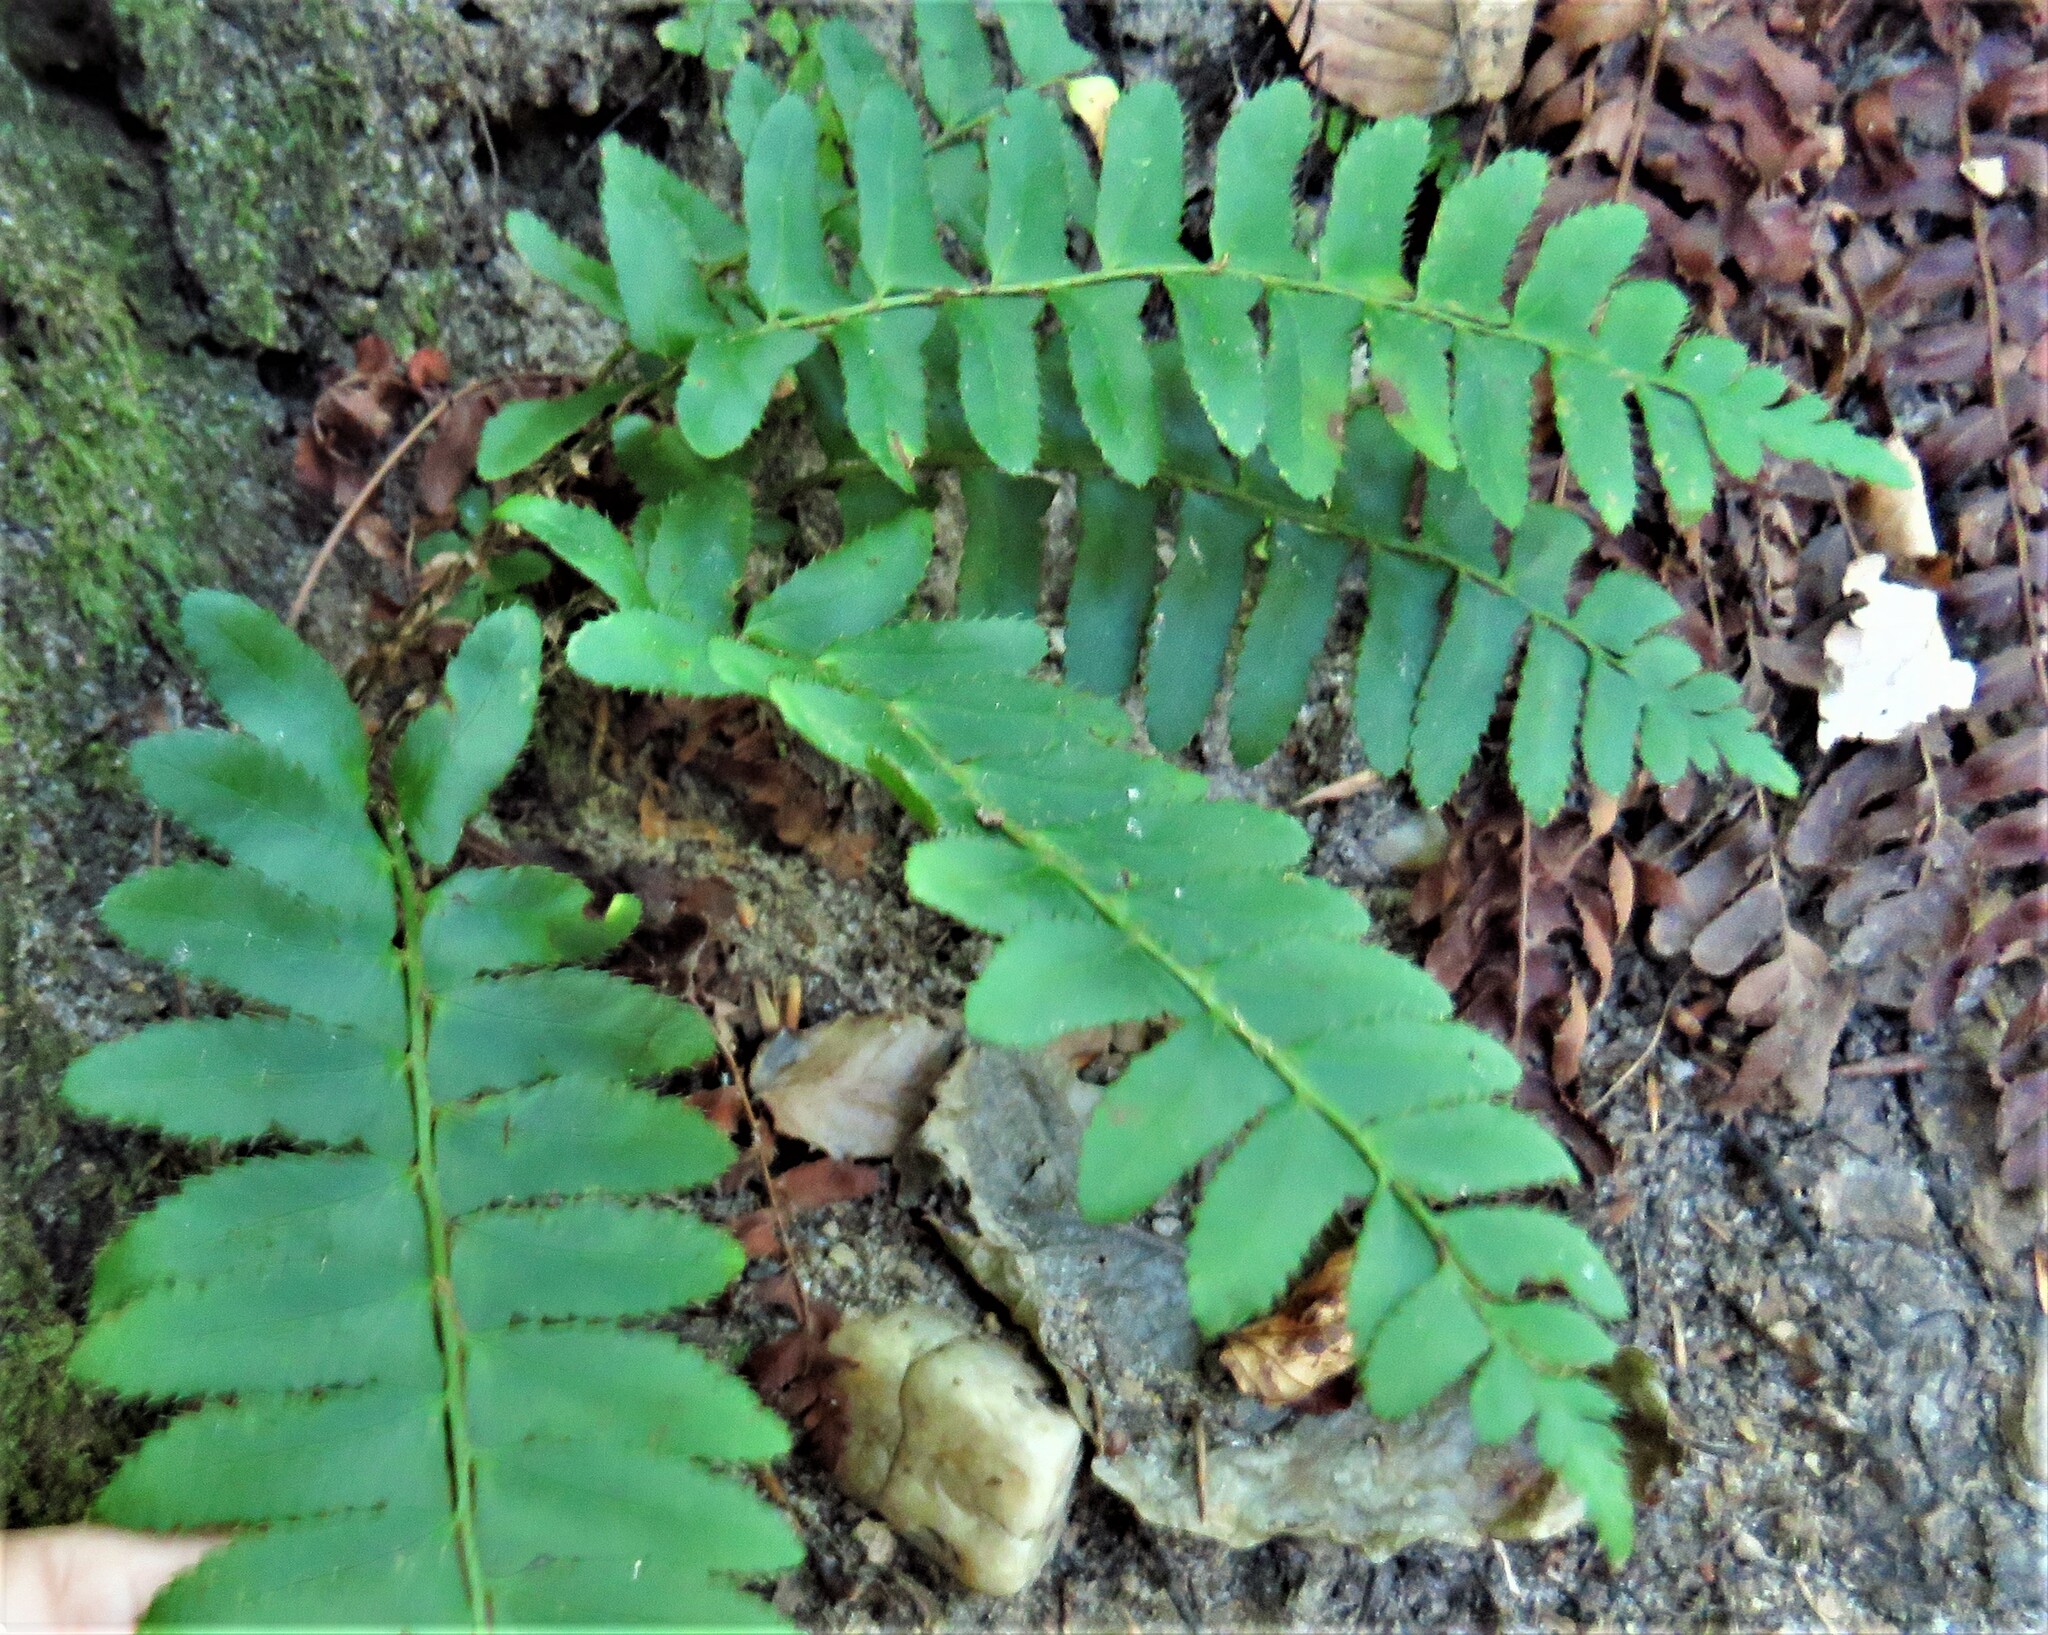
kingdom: Plantae
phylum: Tracheophyta
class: Polypodiopsida
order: Polypodiales
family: Dryopteridaceae
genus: Polystichum
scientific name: Polystichum acrostichoides
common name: Christmas fern
